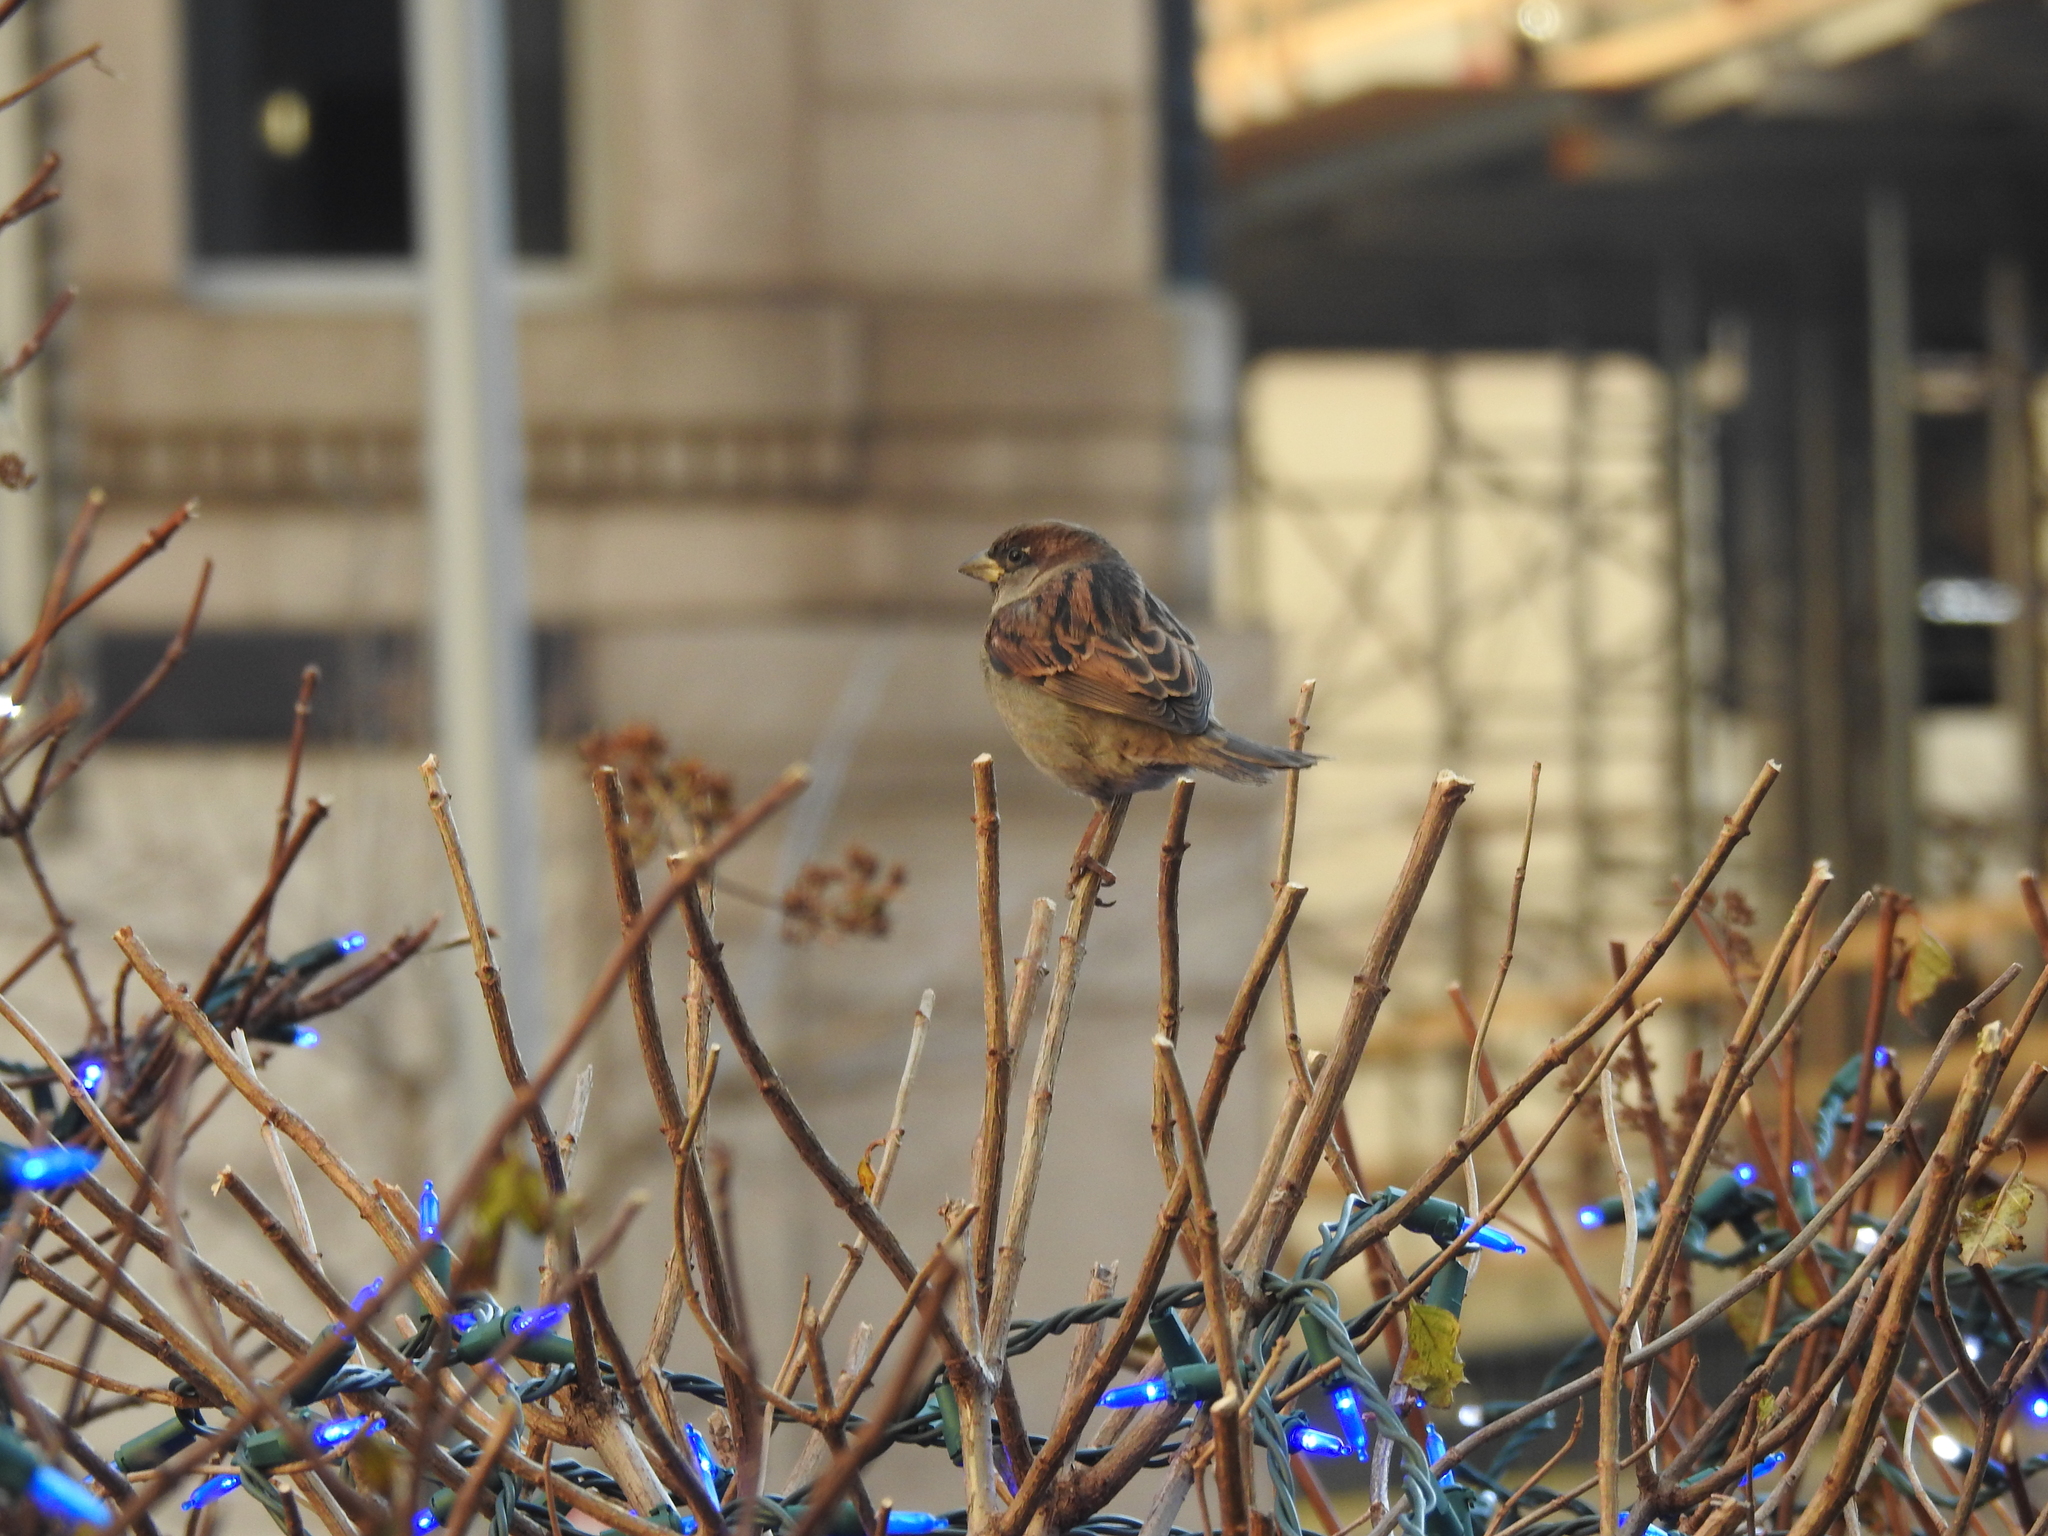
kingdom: Animalia
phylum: Chordata
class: Aves
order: Passeriformes
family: Passeridae
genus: Passer
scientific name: Passer domesticus
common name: House sparrow
